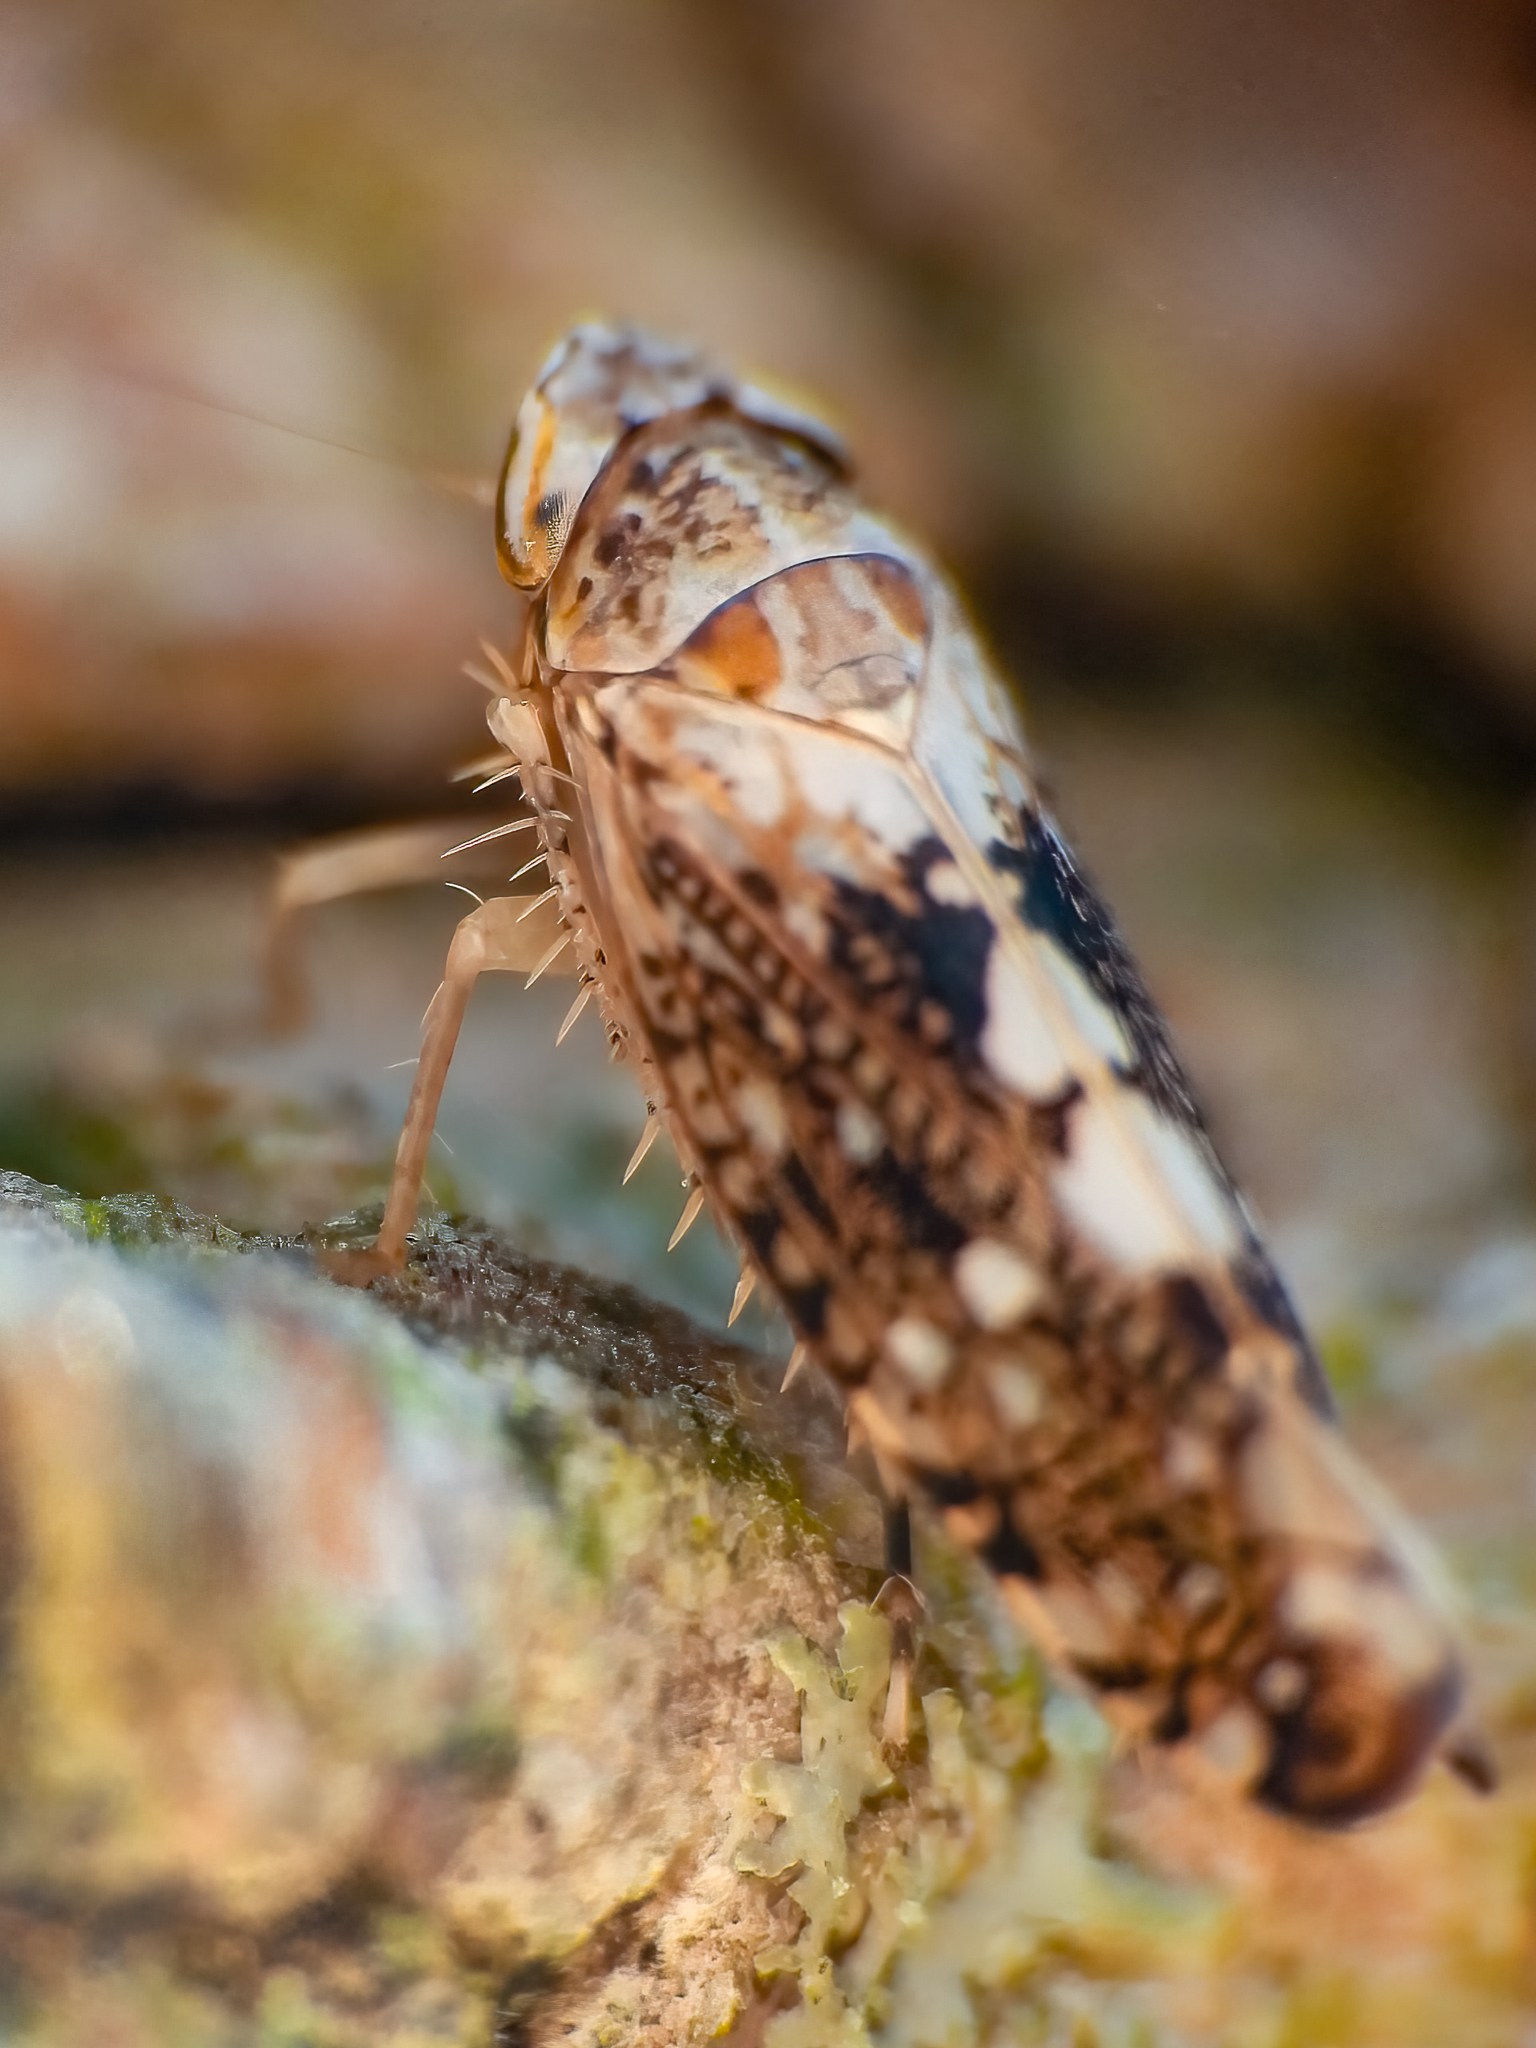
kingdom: Animalia
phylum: Arthropoda
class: Insecta
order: Hemiptera
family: Cicadellidae
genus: Prescottia
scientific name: Prescottia lobata
